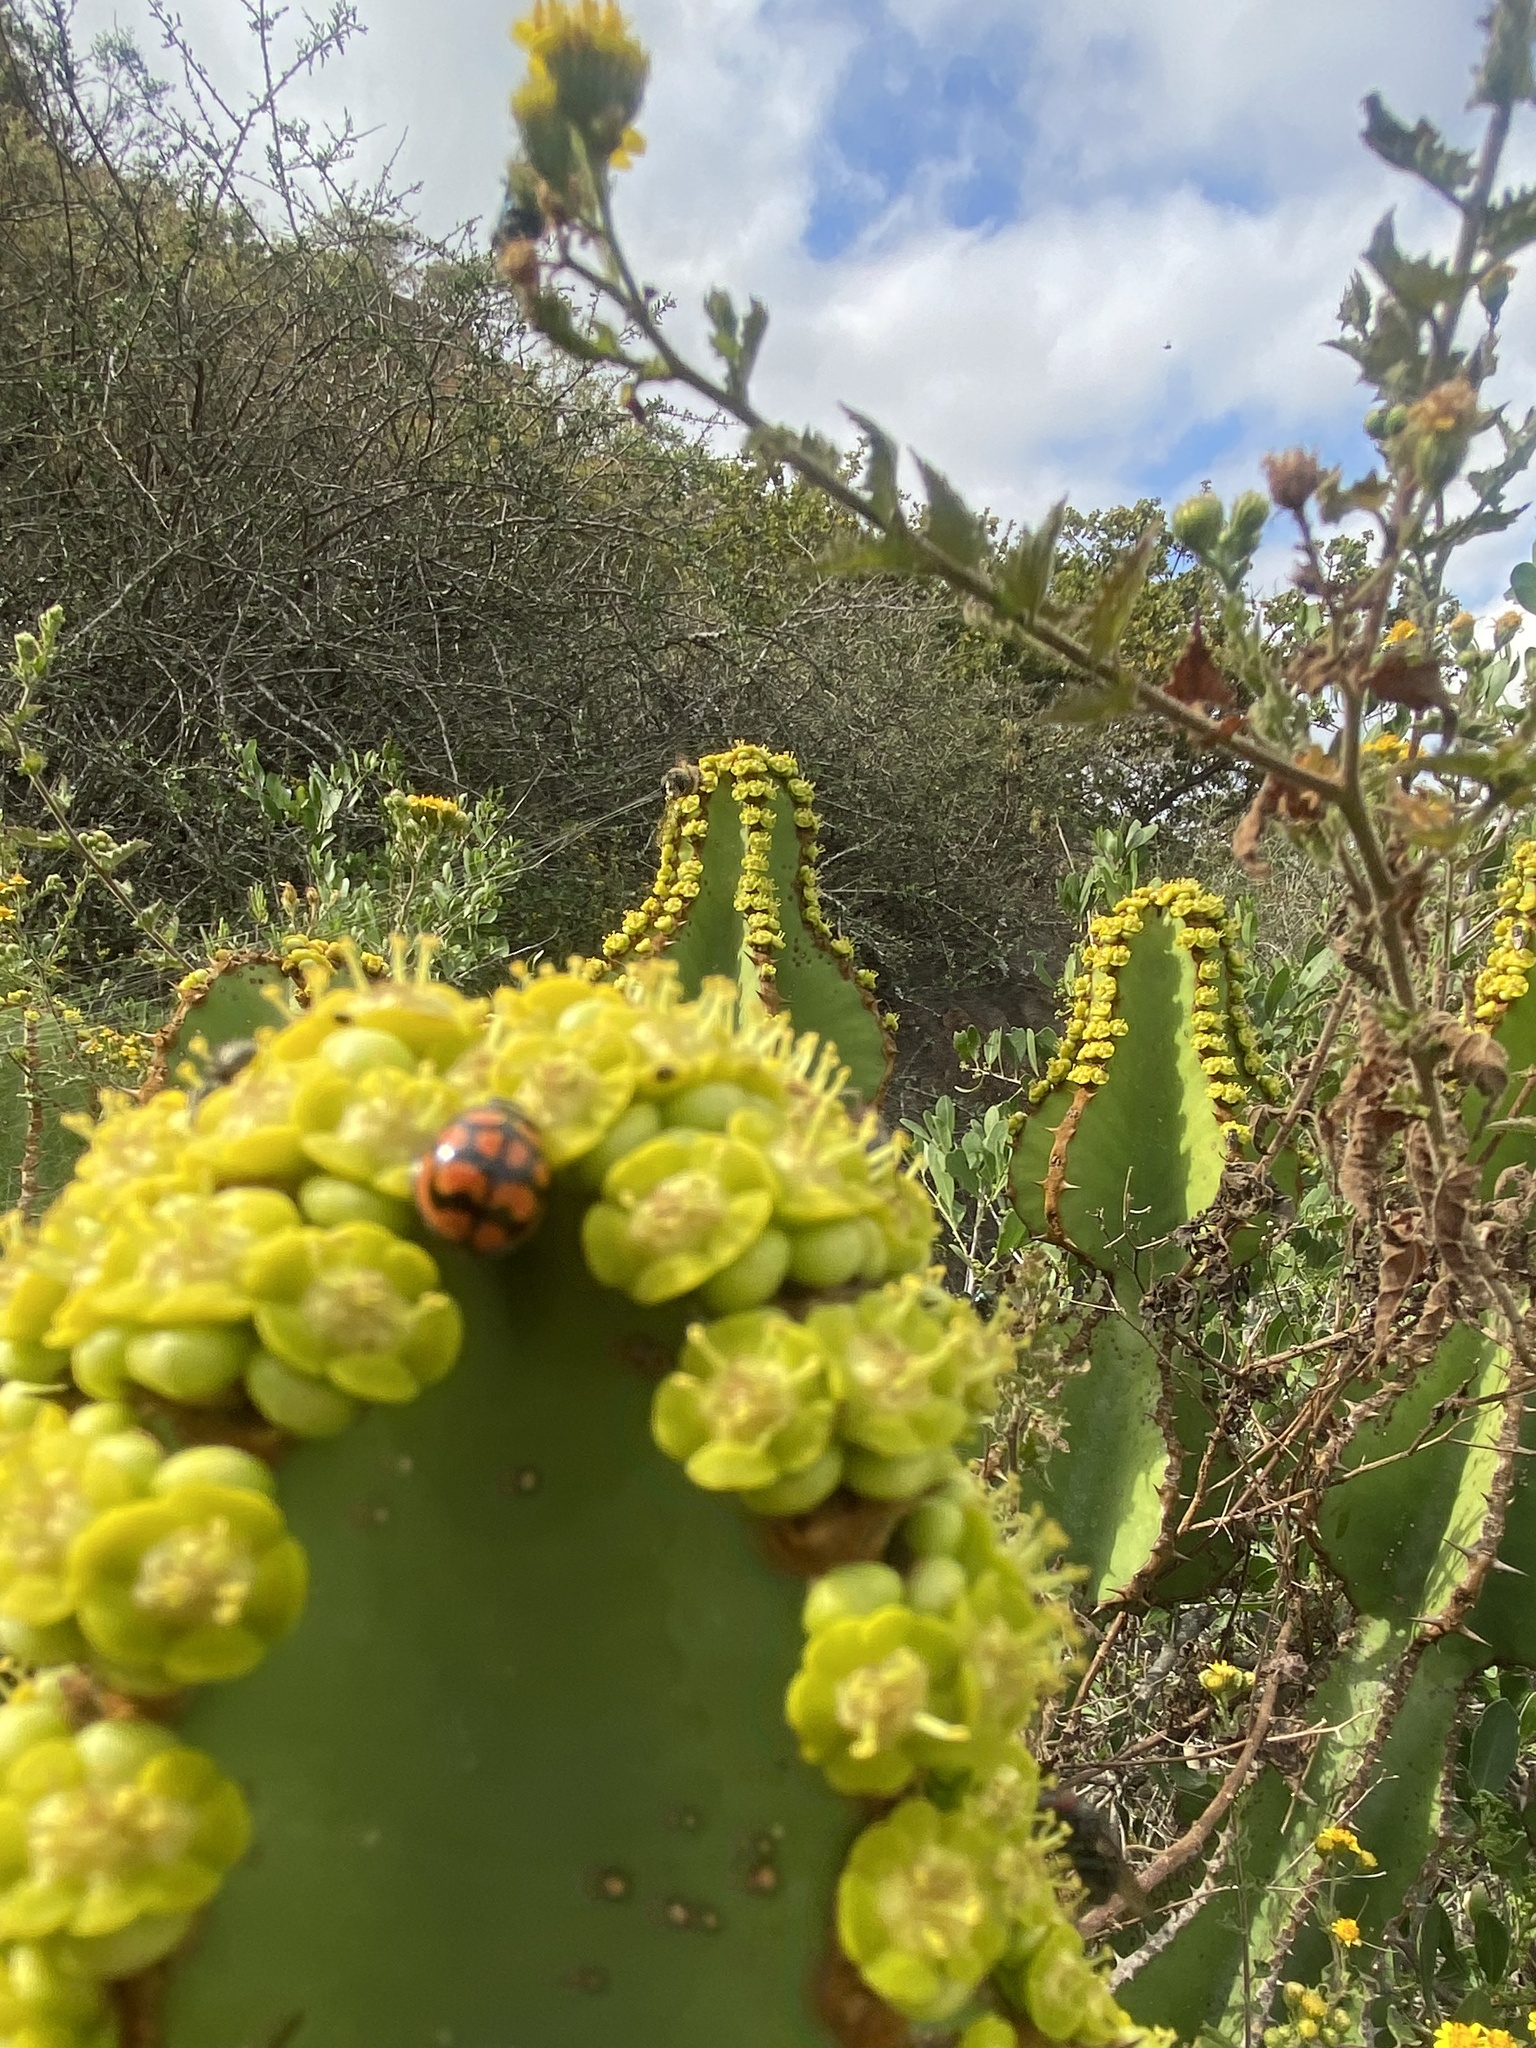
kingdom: Animalia
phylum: Arthropoda
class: Insecta
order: Coleoptera
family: Coccinellidae
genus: Cheilomenes
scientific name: Cheilomenes lunata
